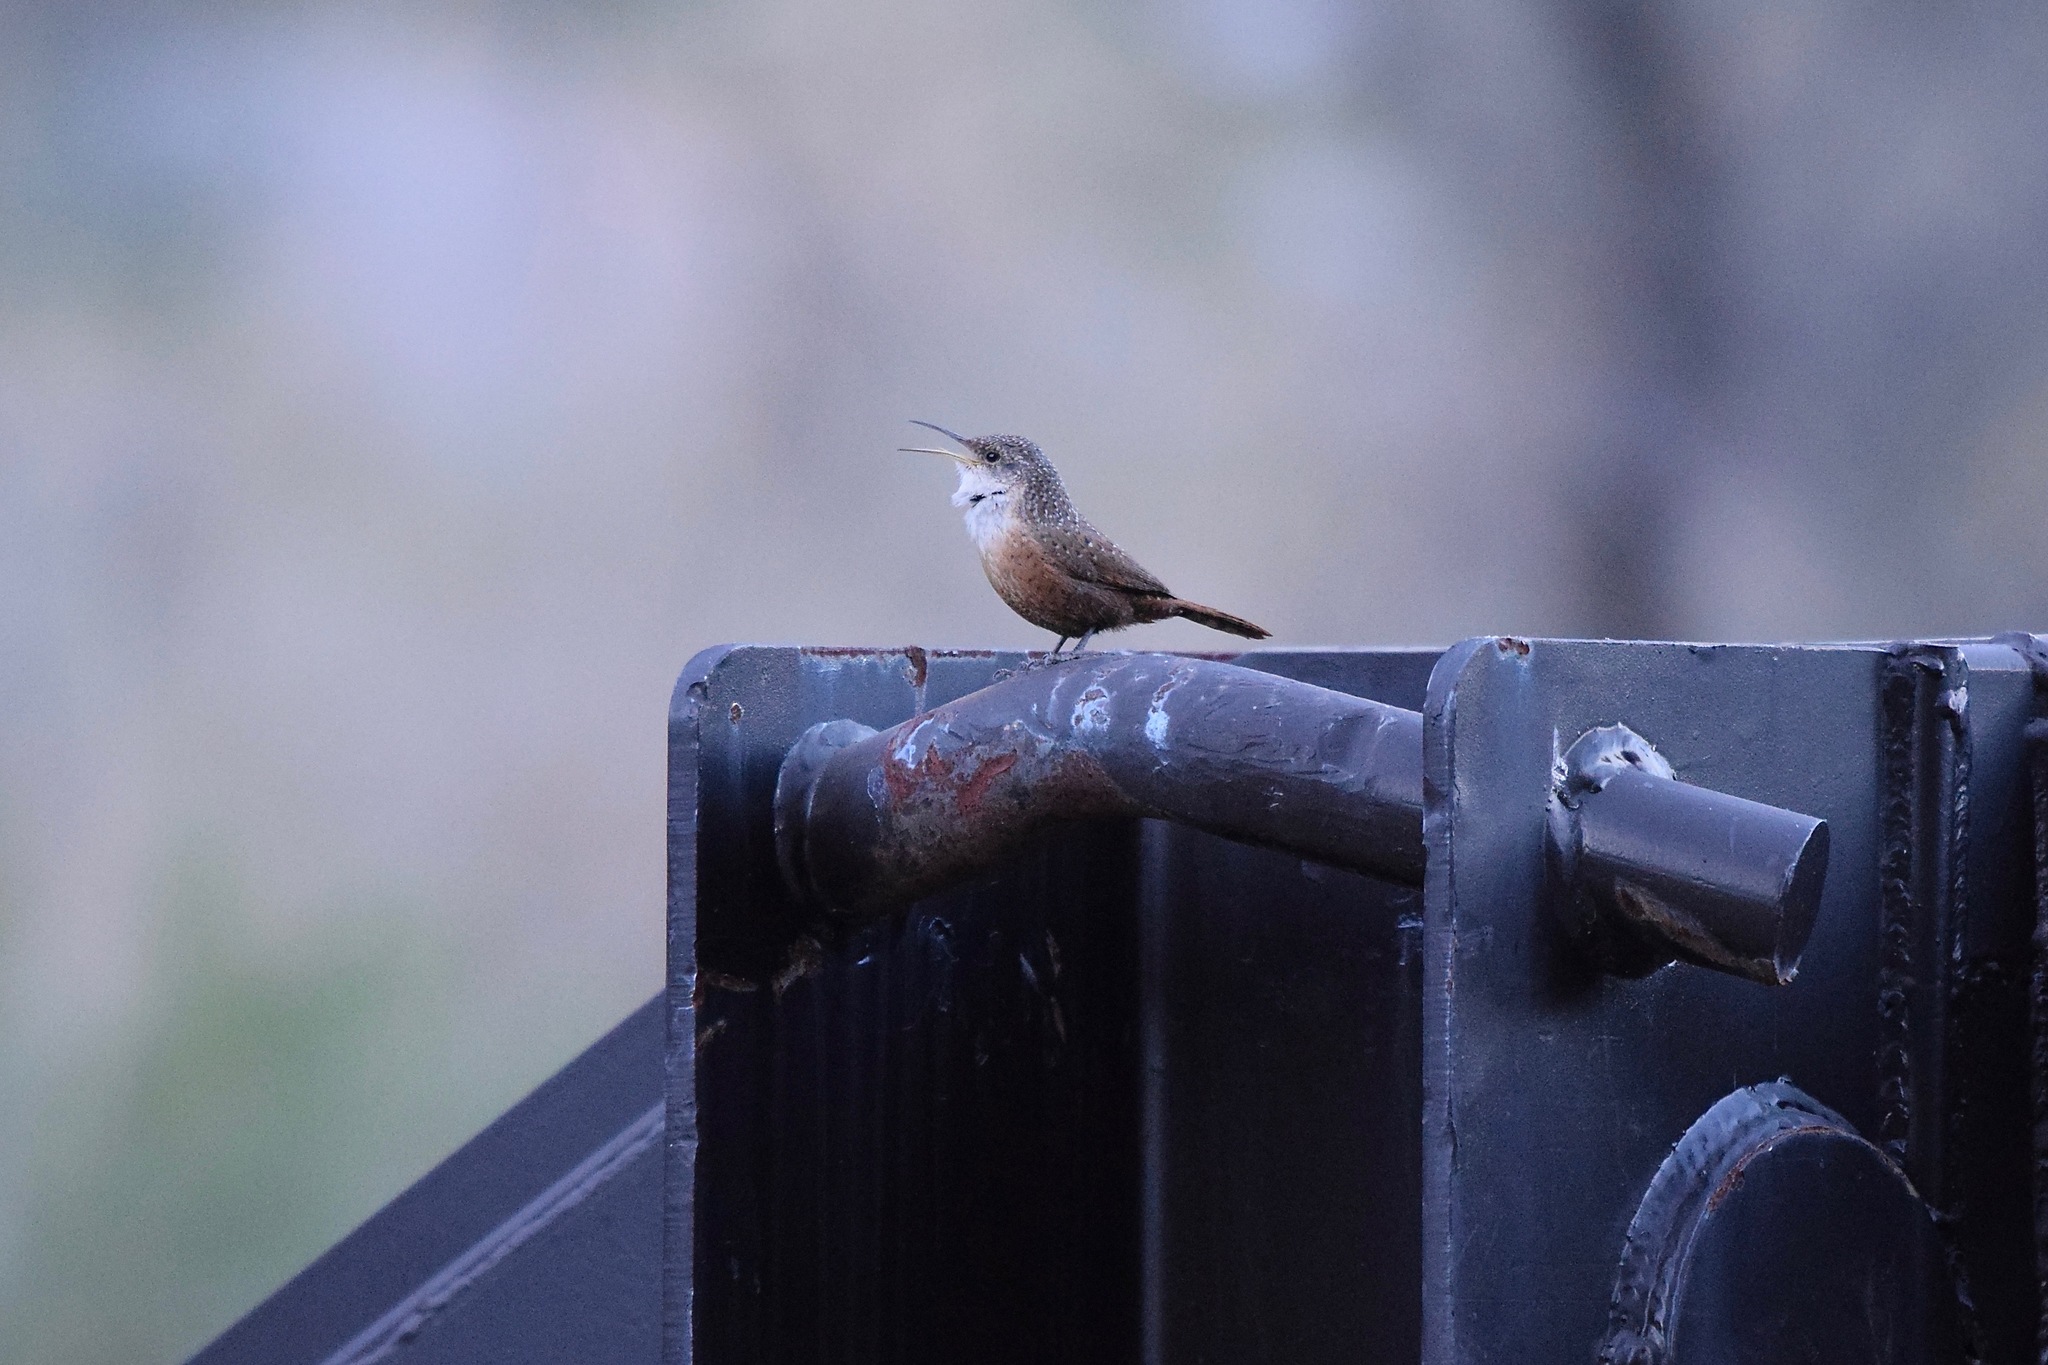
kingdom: Animalia
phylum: Chordata
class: Aves
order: Passeriformes
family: Troglodytidae
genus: Catherpes
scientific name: Catherpes mexicanus
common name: Canyon wren
